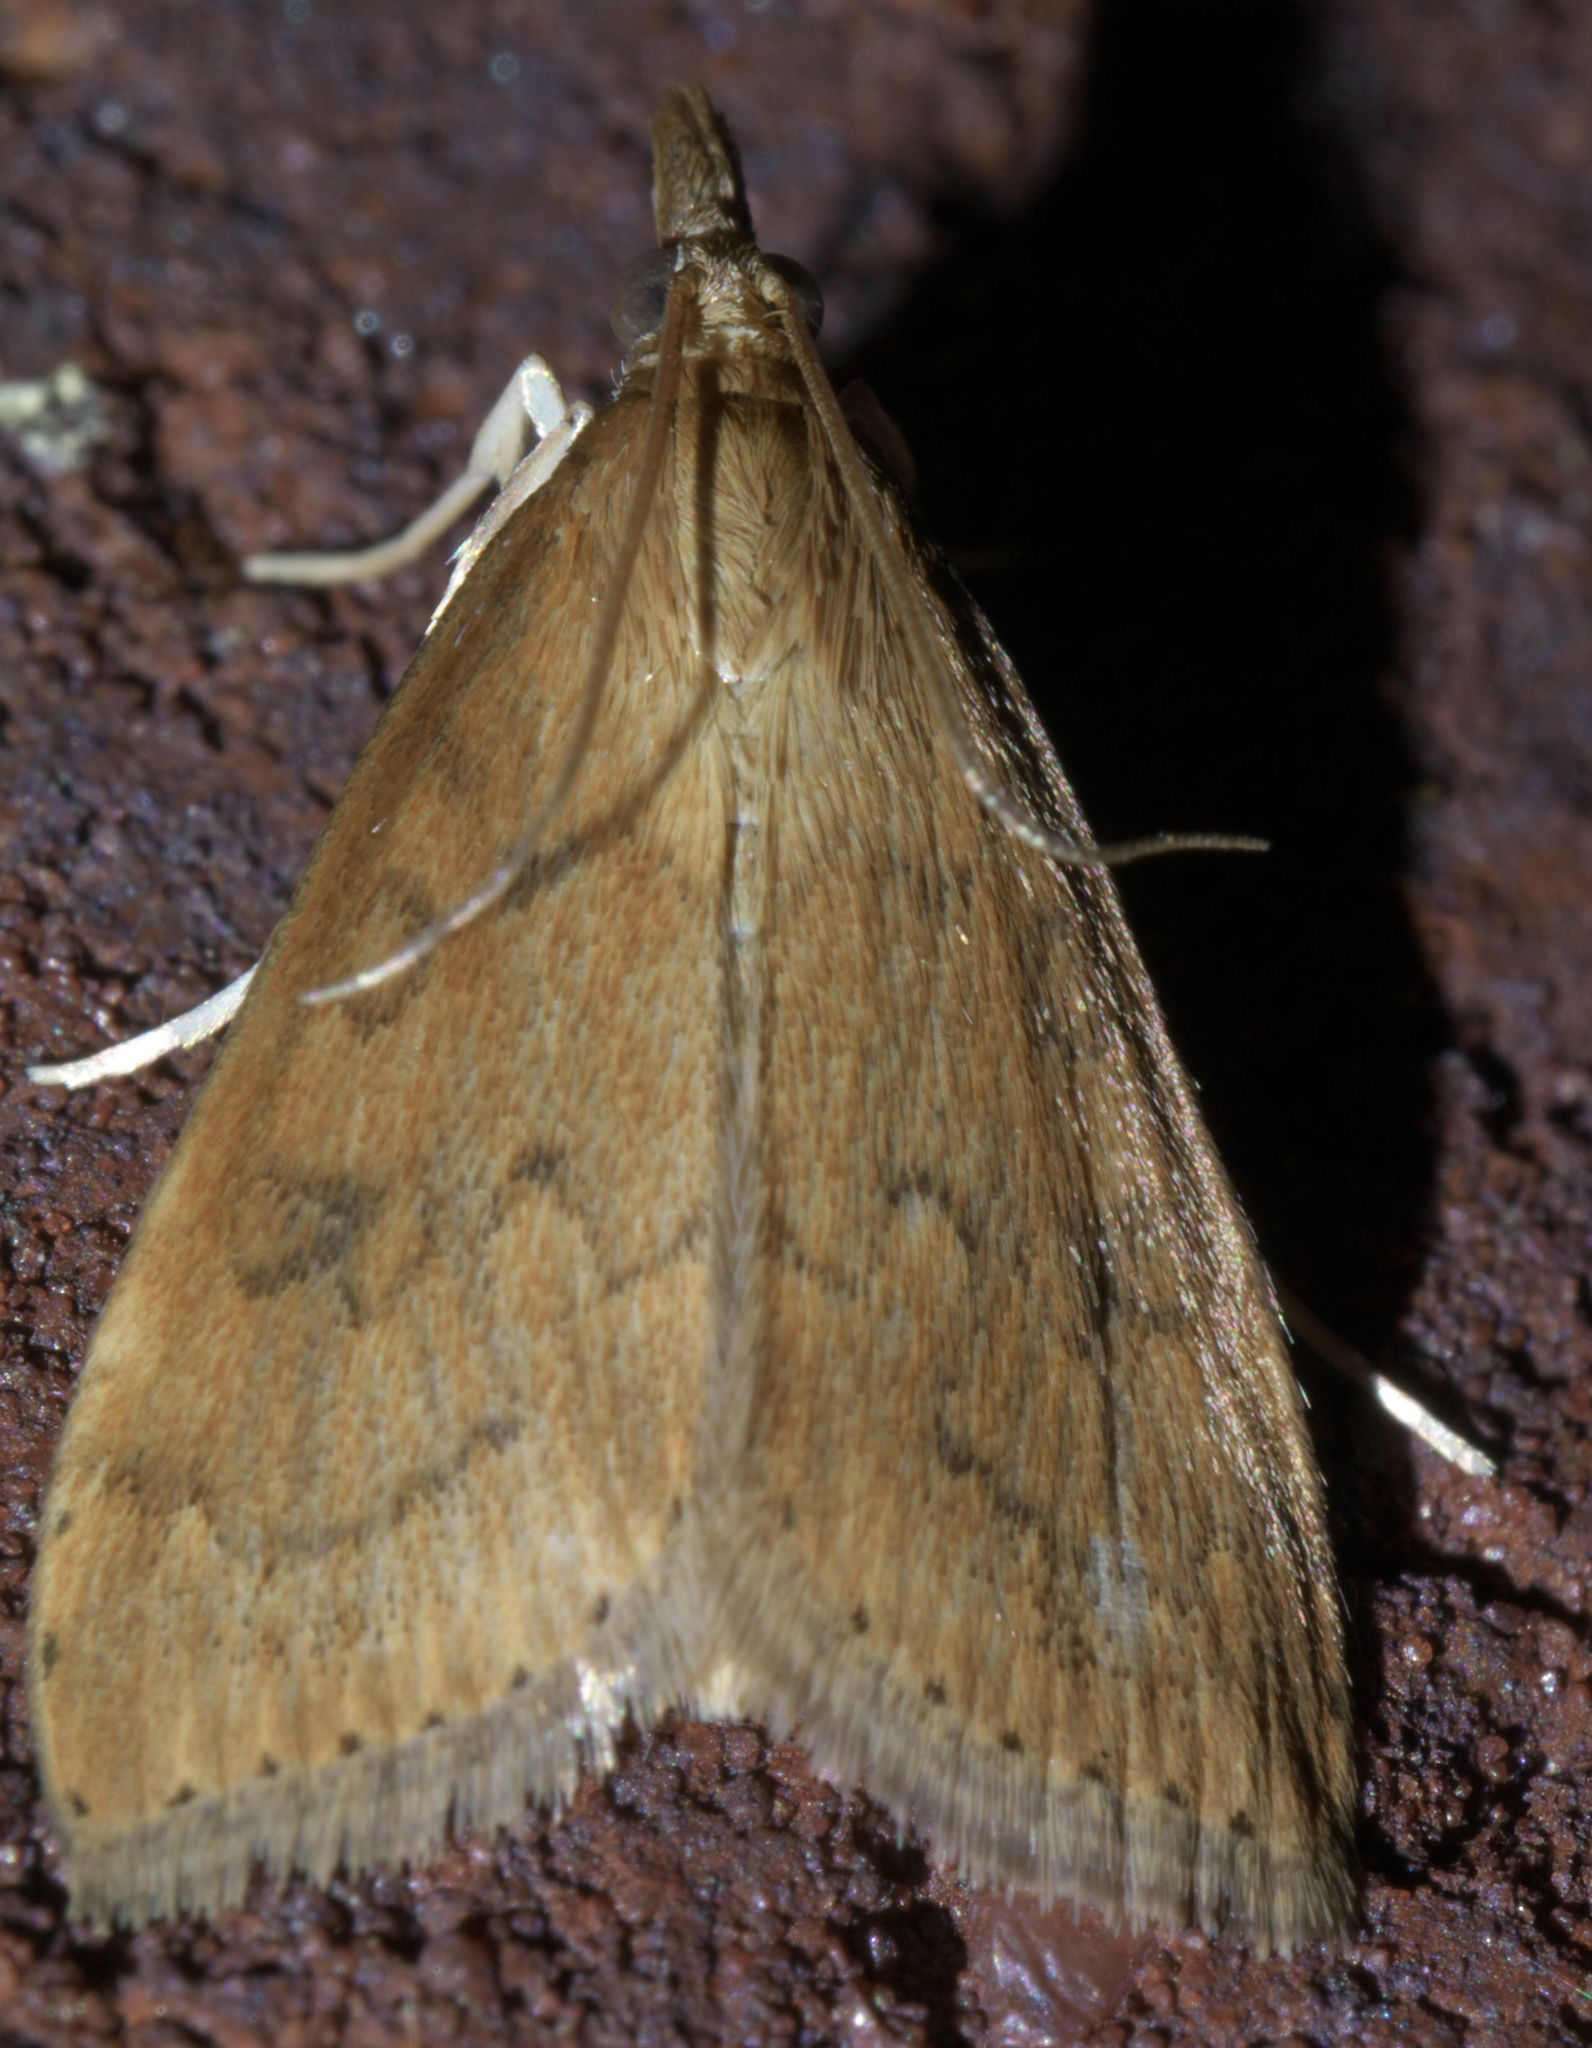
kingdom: Animalia
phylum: Arthropoda
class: Insecta
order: Lepidoptera
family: Crambidae
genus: Udea
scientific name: Udea rubigalis
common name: Celery leaftier moth
